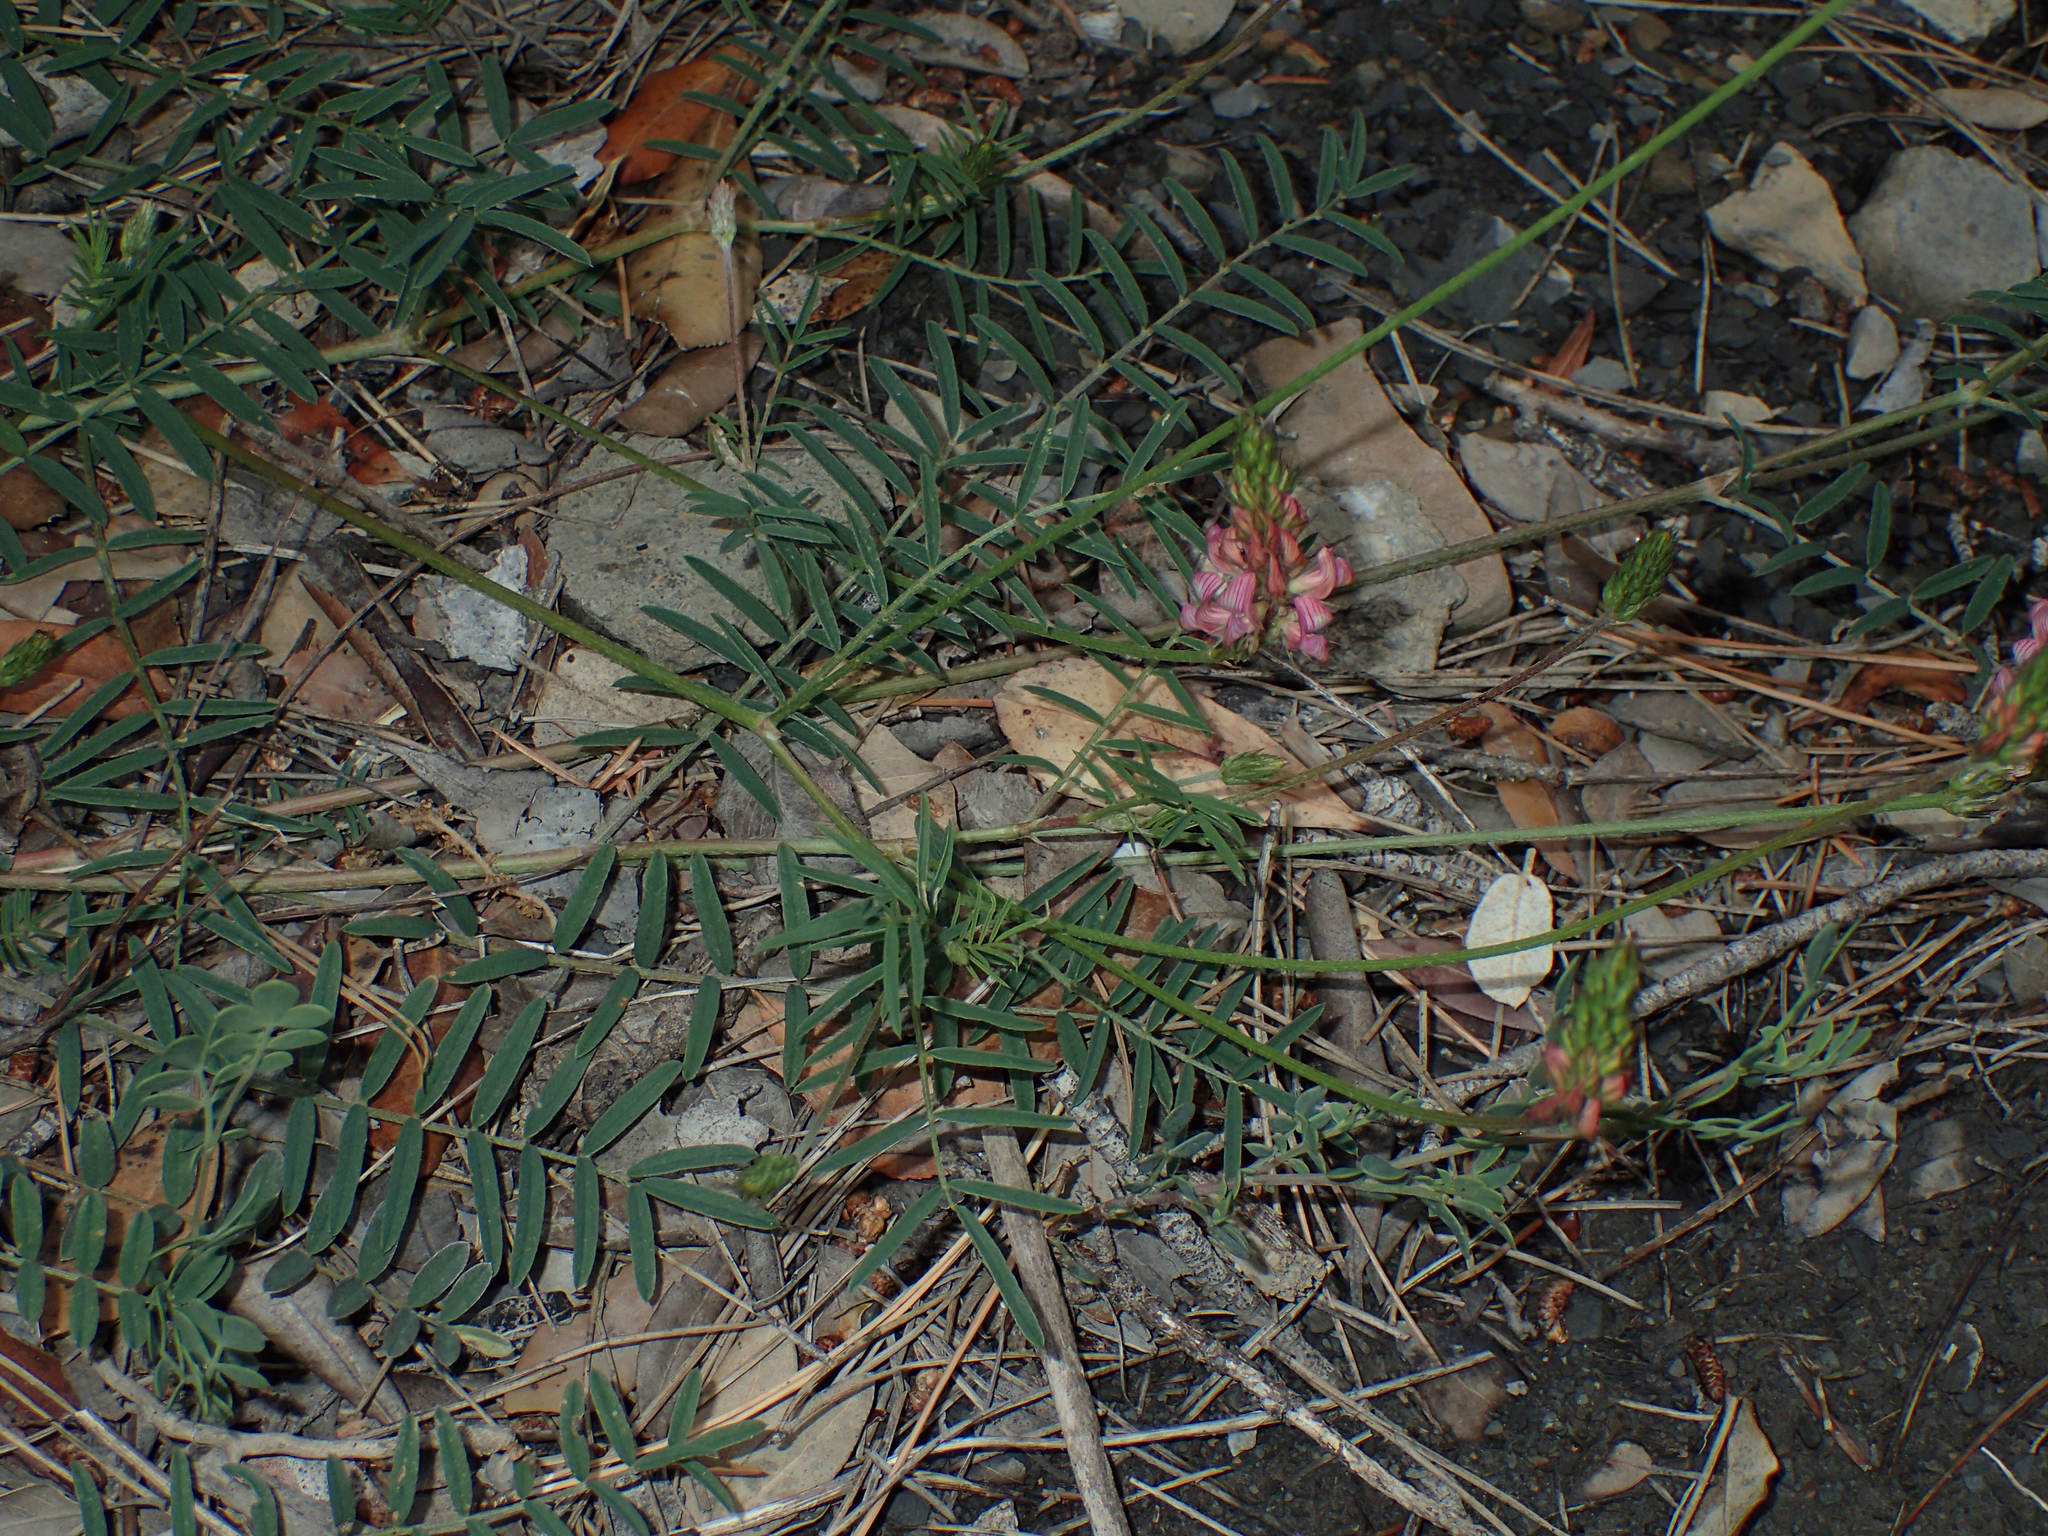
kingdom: Plantae
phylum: Tracheophyta
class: Magnoliopsida
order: Fabales
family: Fabaceae
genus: Onobrychis
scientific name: Onobrychis viciifolia
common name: Sainfoin
